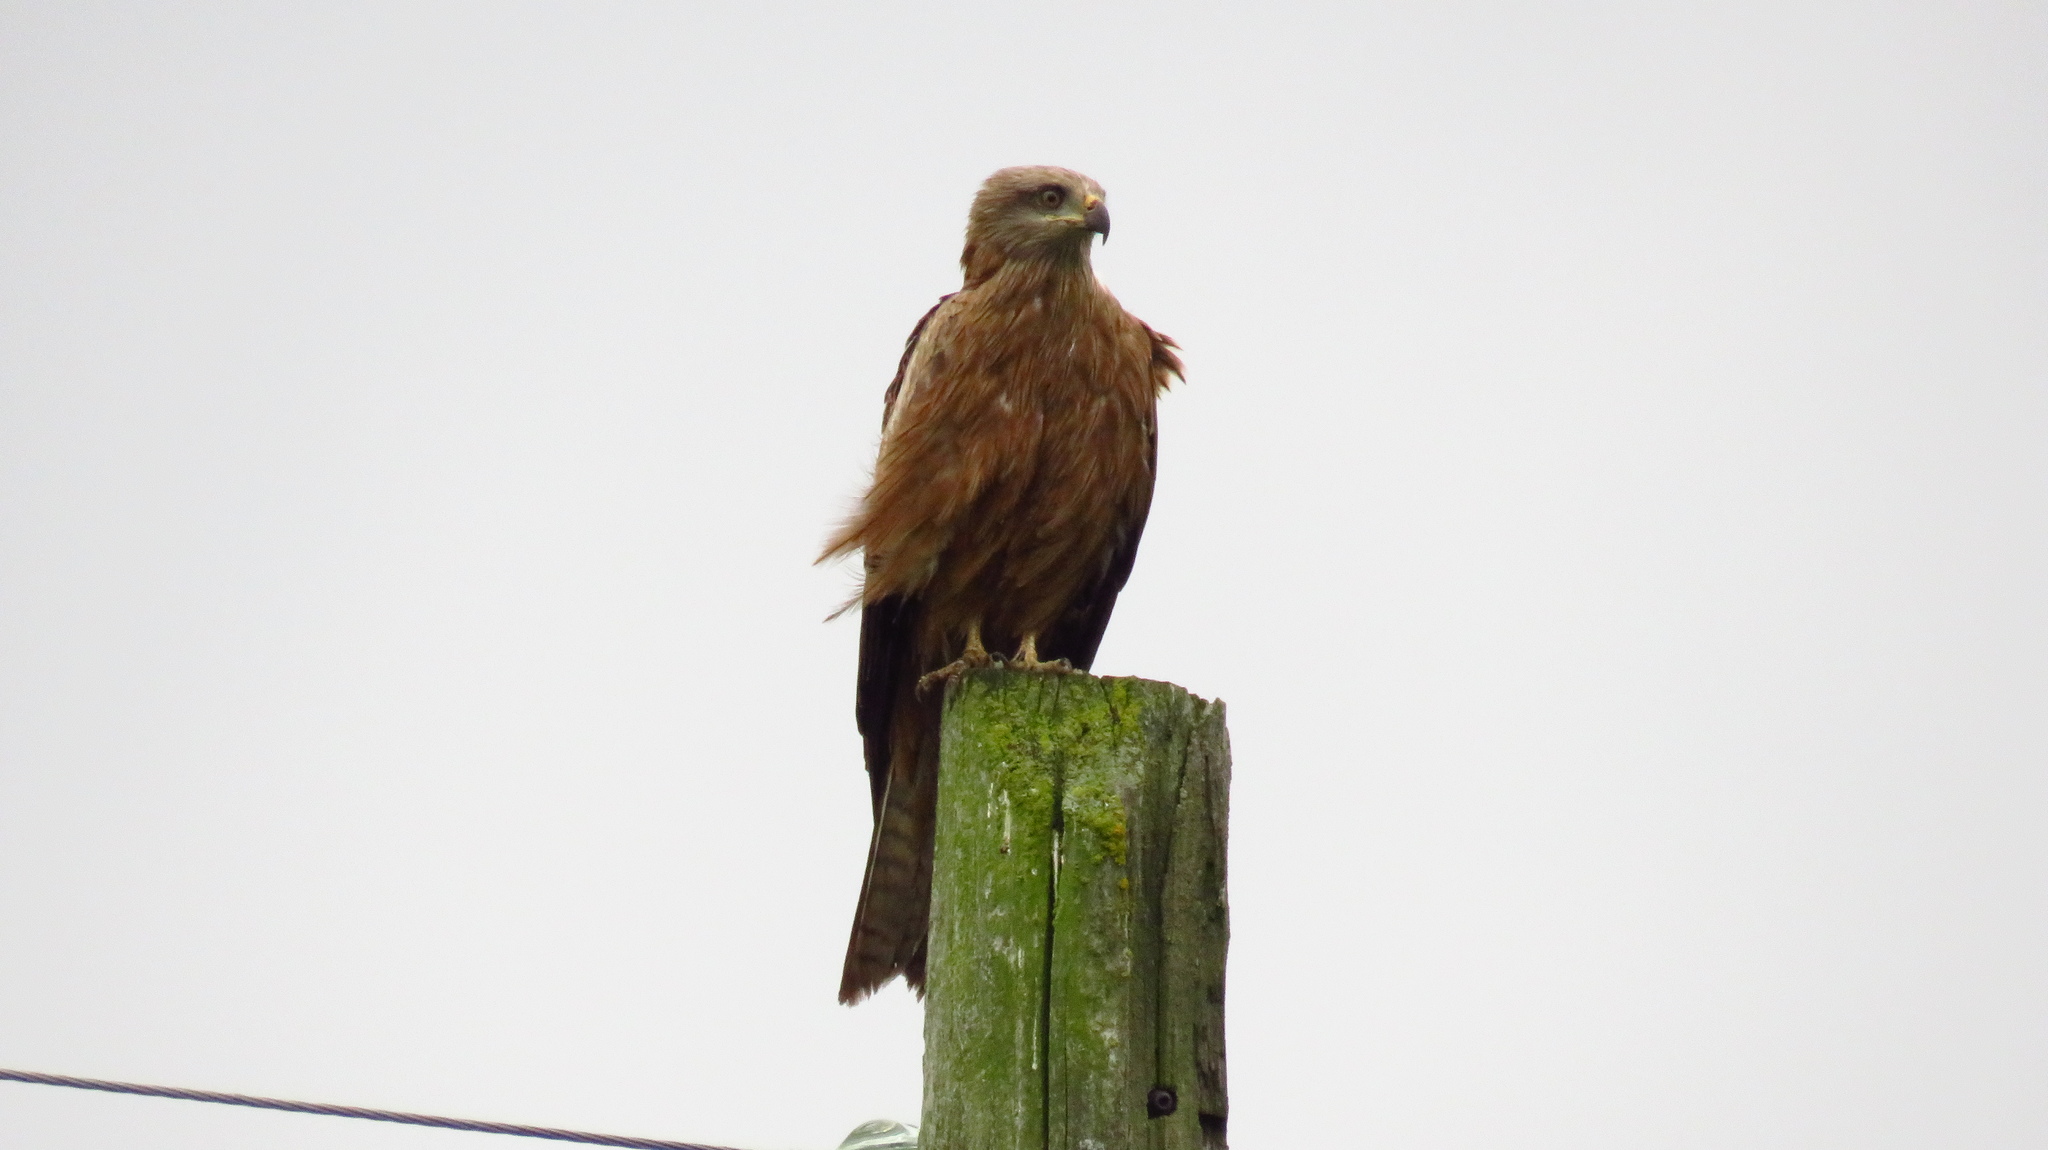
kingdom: Animalia
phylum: Chordata
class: Aves
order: Accipitriformes
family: Accipitridae
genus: Milvus
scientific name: Milvus migrans
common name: Black kite
